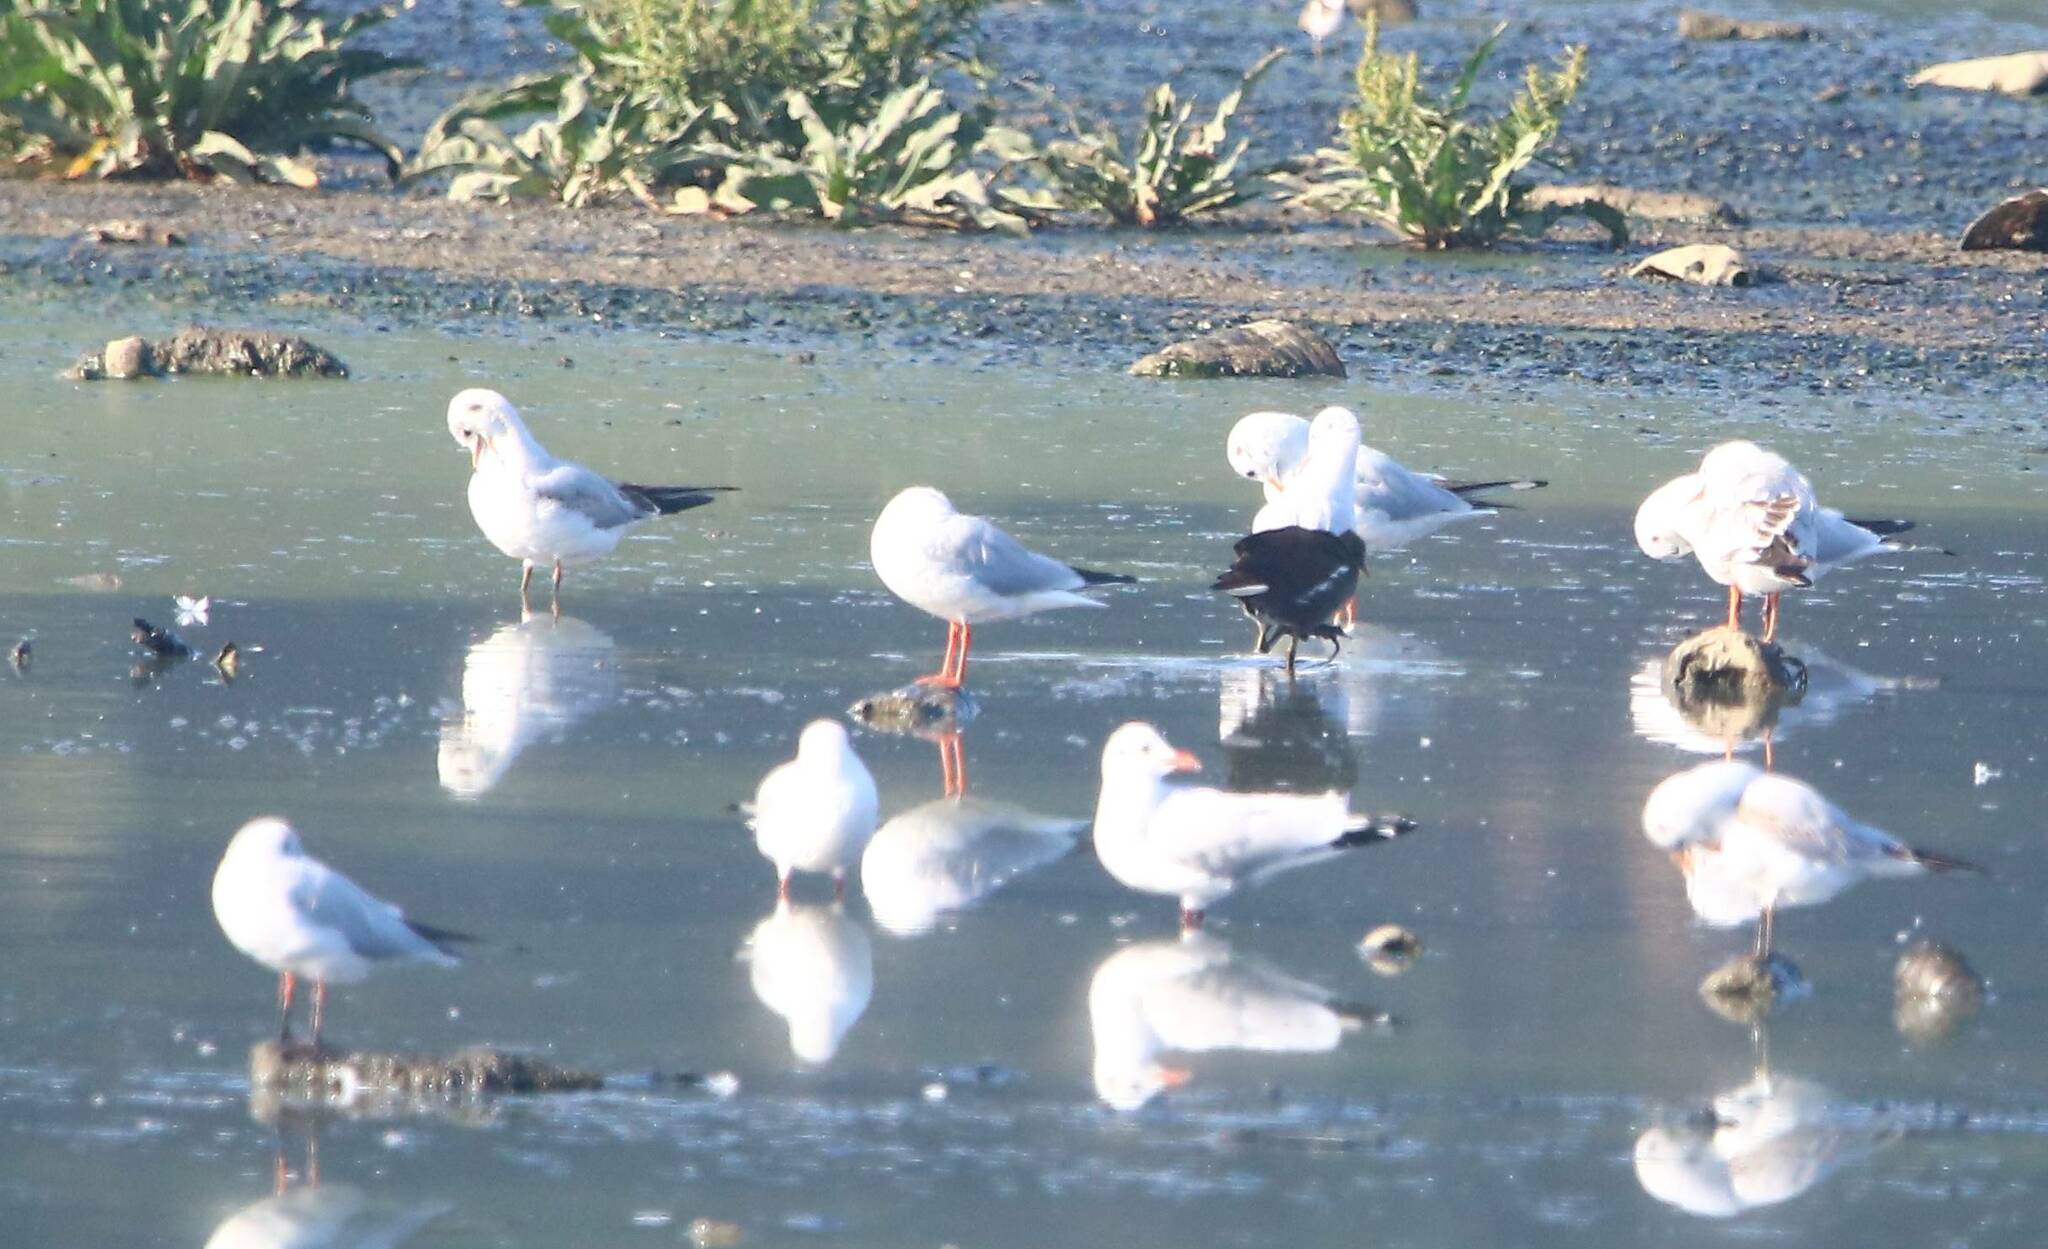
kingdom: Animalia
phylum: Chordata
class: Aves
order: Charadriiformes
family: Laridae
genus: Chroicocephalus
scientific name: Chroicocephalus ridibundus
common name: Black-headed gull
